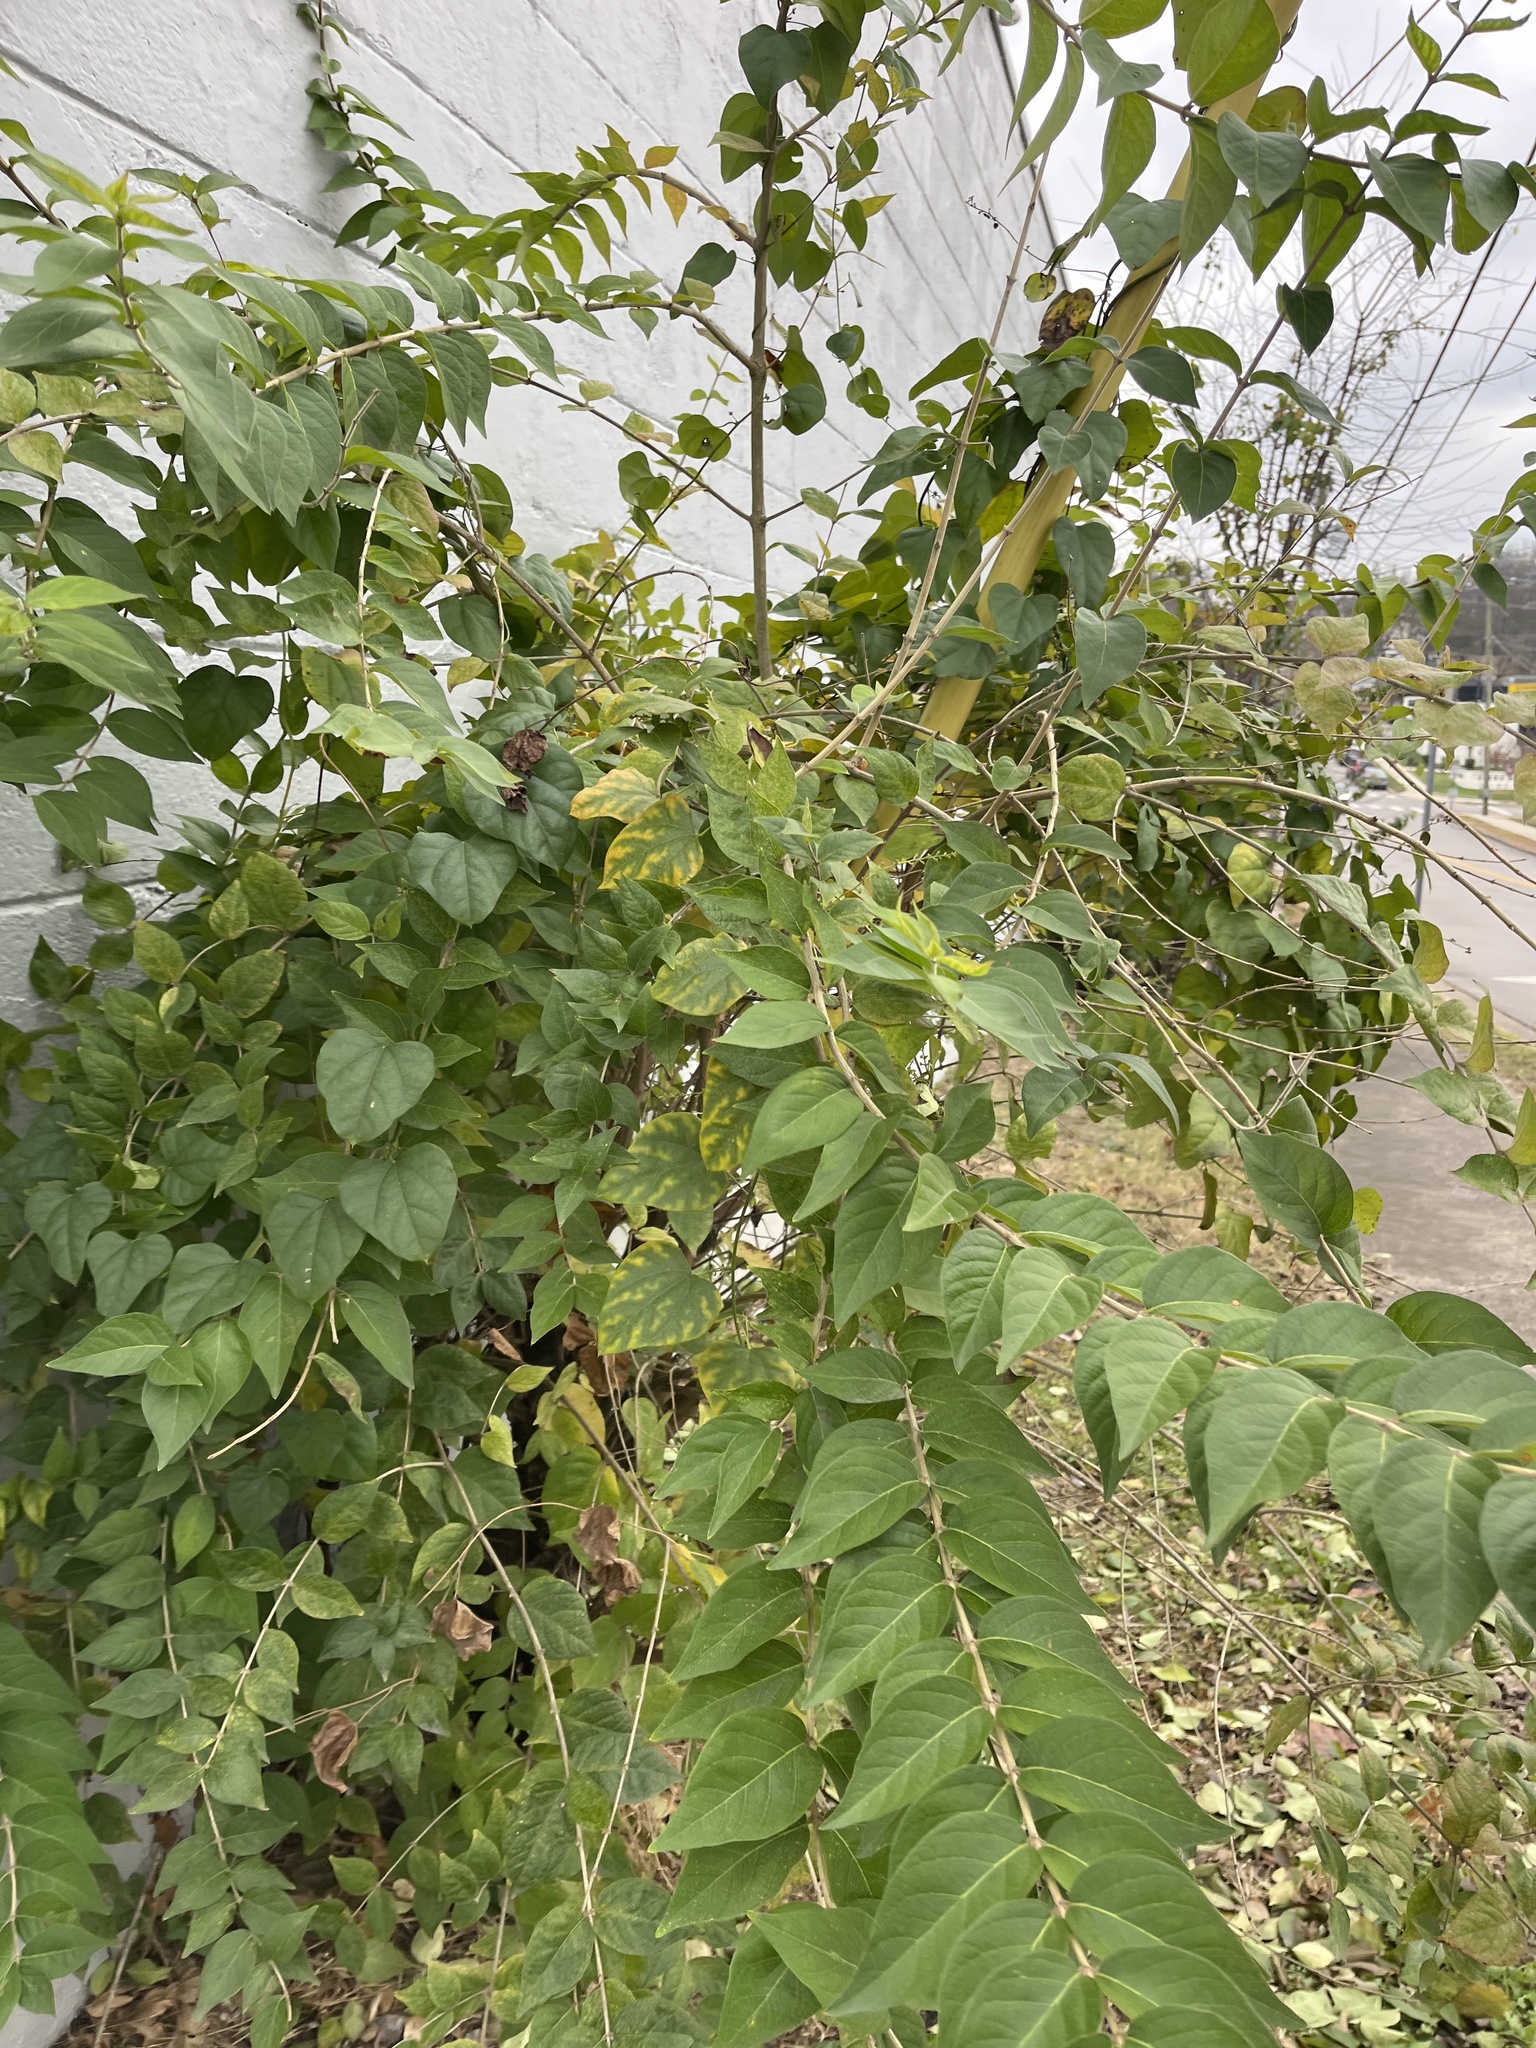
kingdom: Plantae
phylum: Tracheophyta
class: Magnoliopsida
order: Dipsacales
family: Caprifoliaceae
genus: Lonicera
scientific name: Lonicera maackii
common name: Amur honeysuckle
